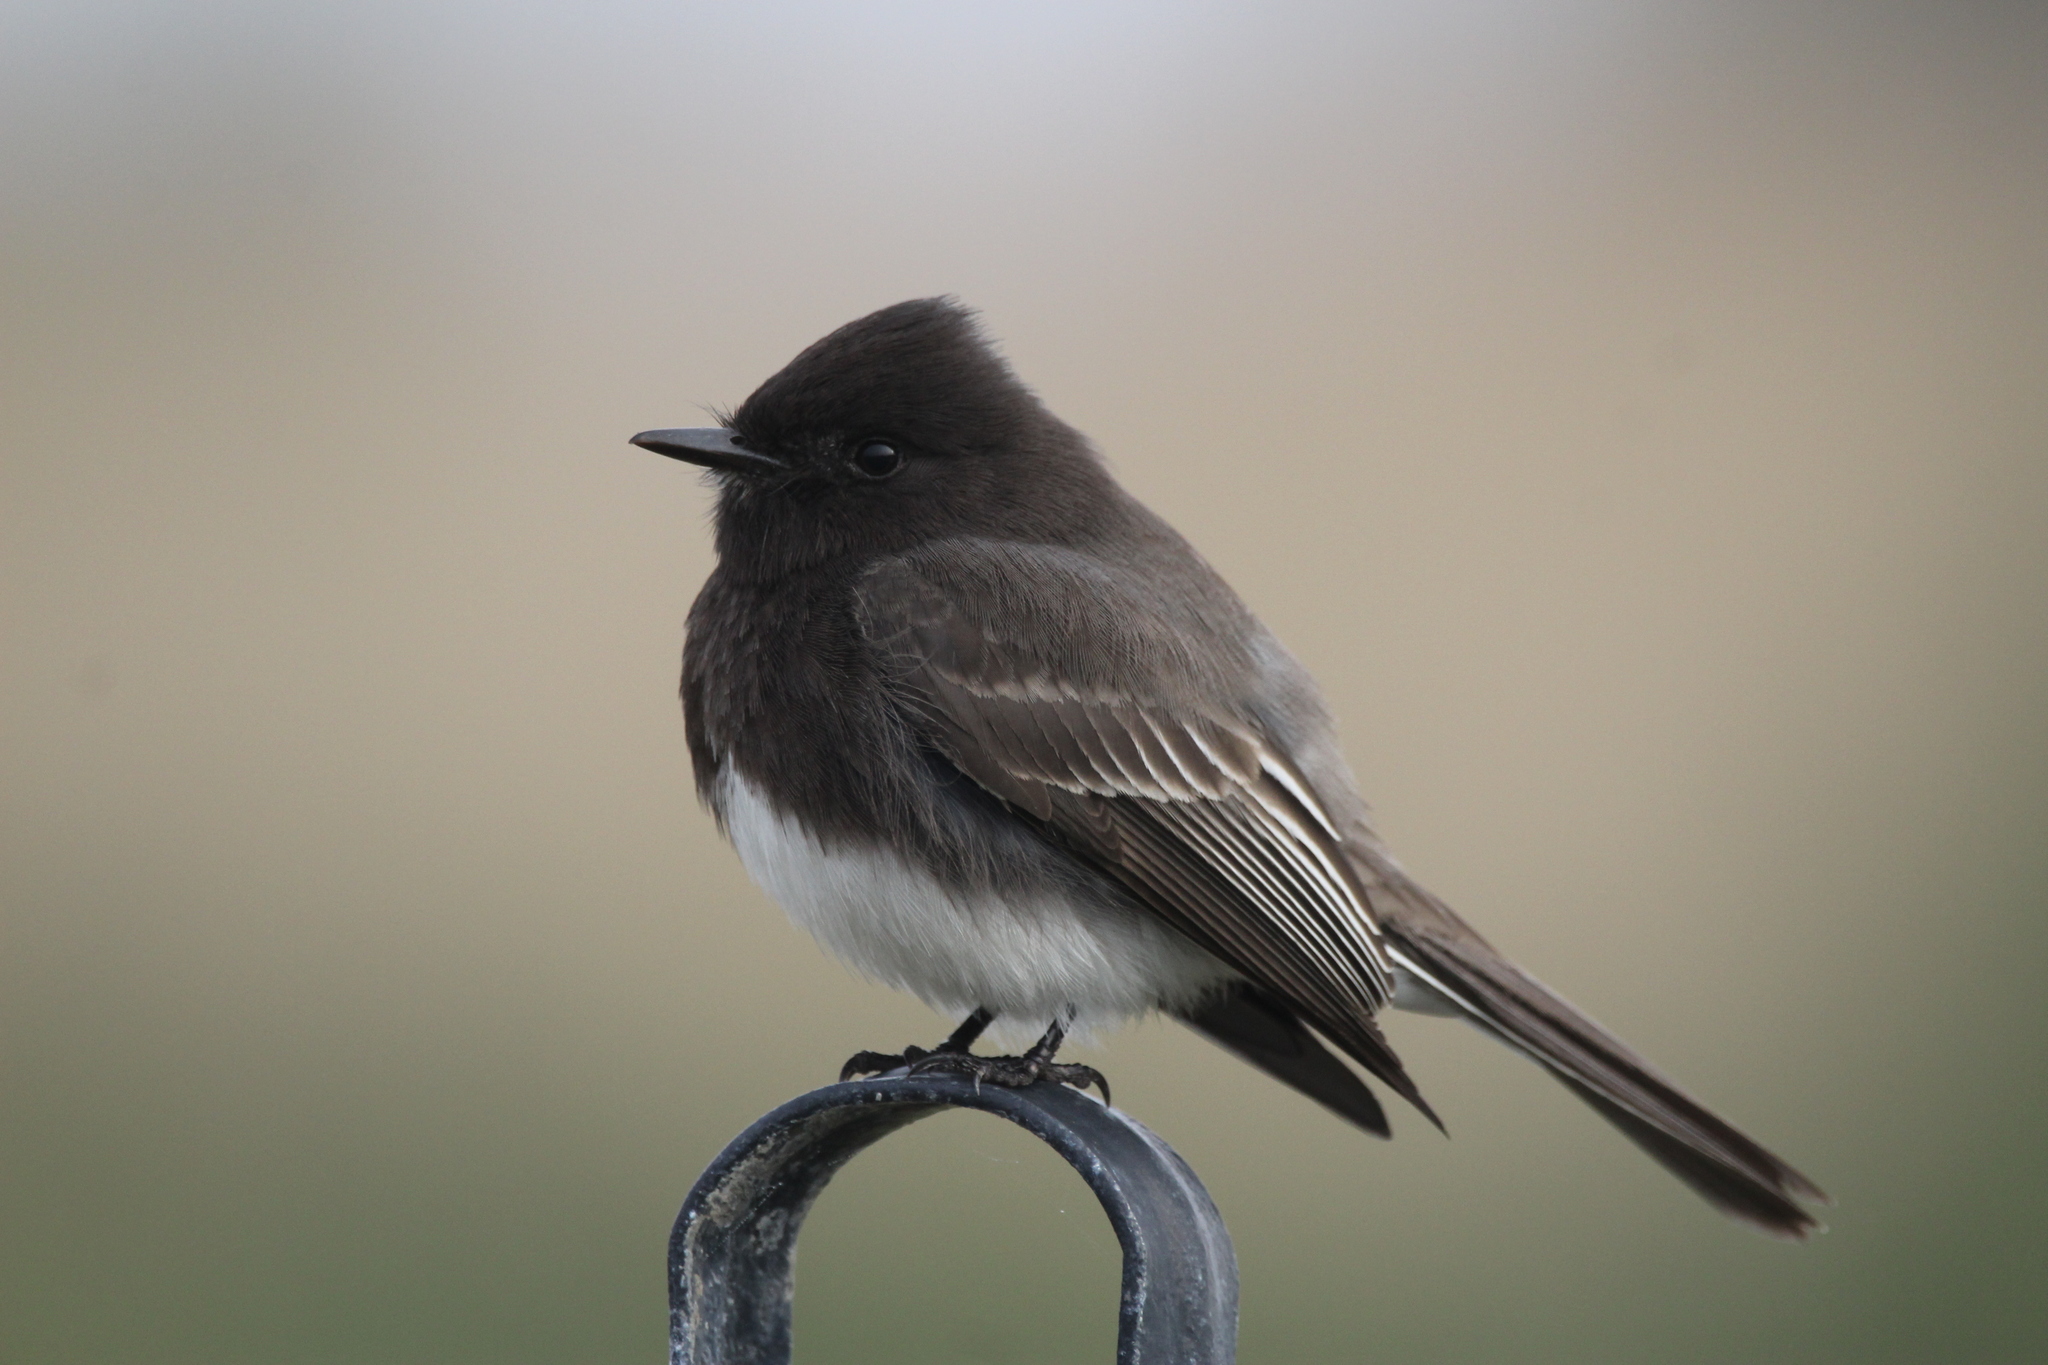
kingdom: Animalia
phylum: Chordata
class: Aves
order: Passeriformes
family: Tyrannidae
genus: Sayornis
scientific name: Sayornis nigricans
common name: Black phoebe
